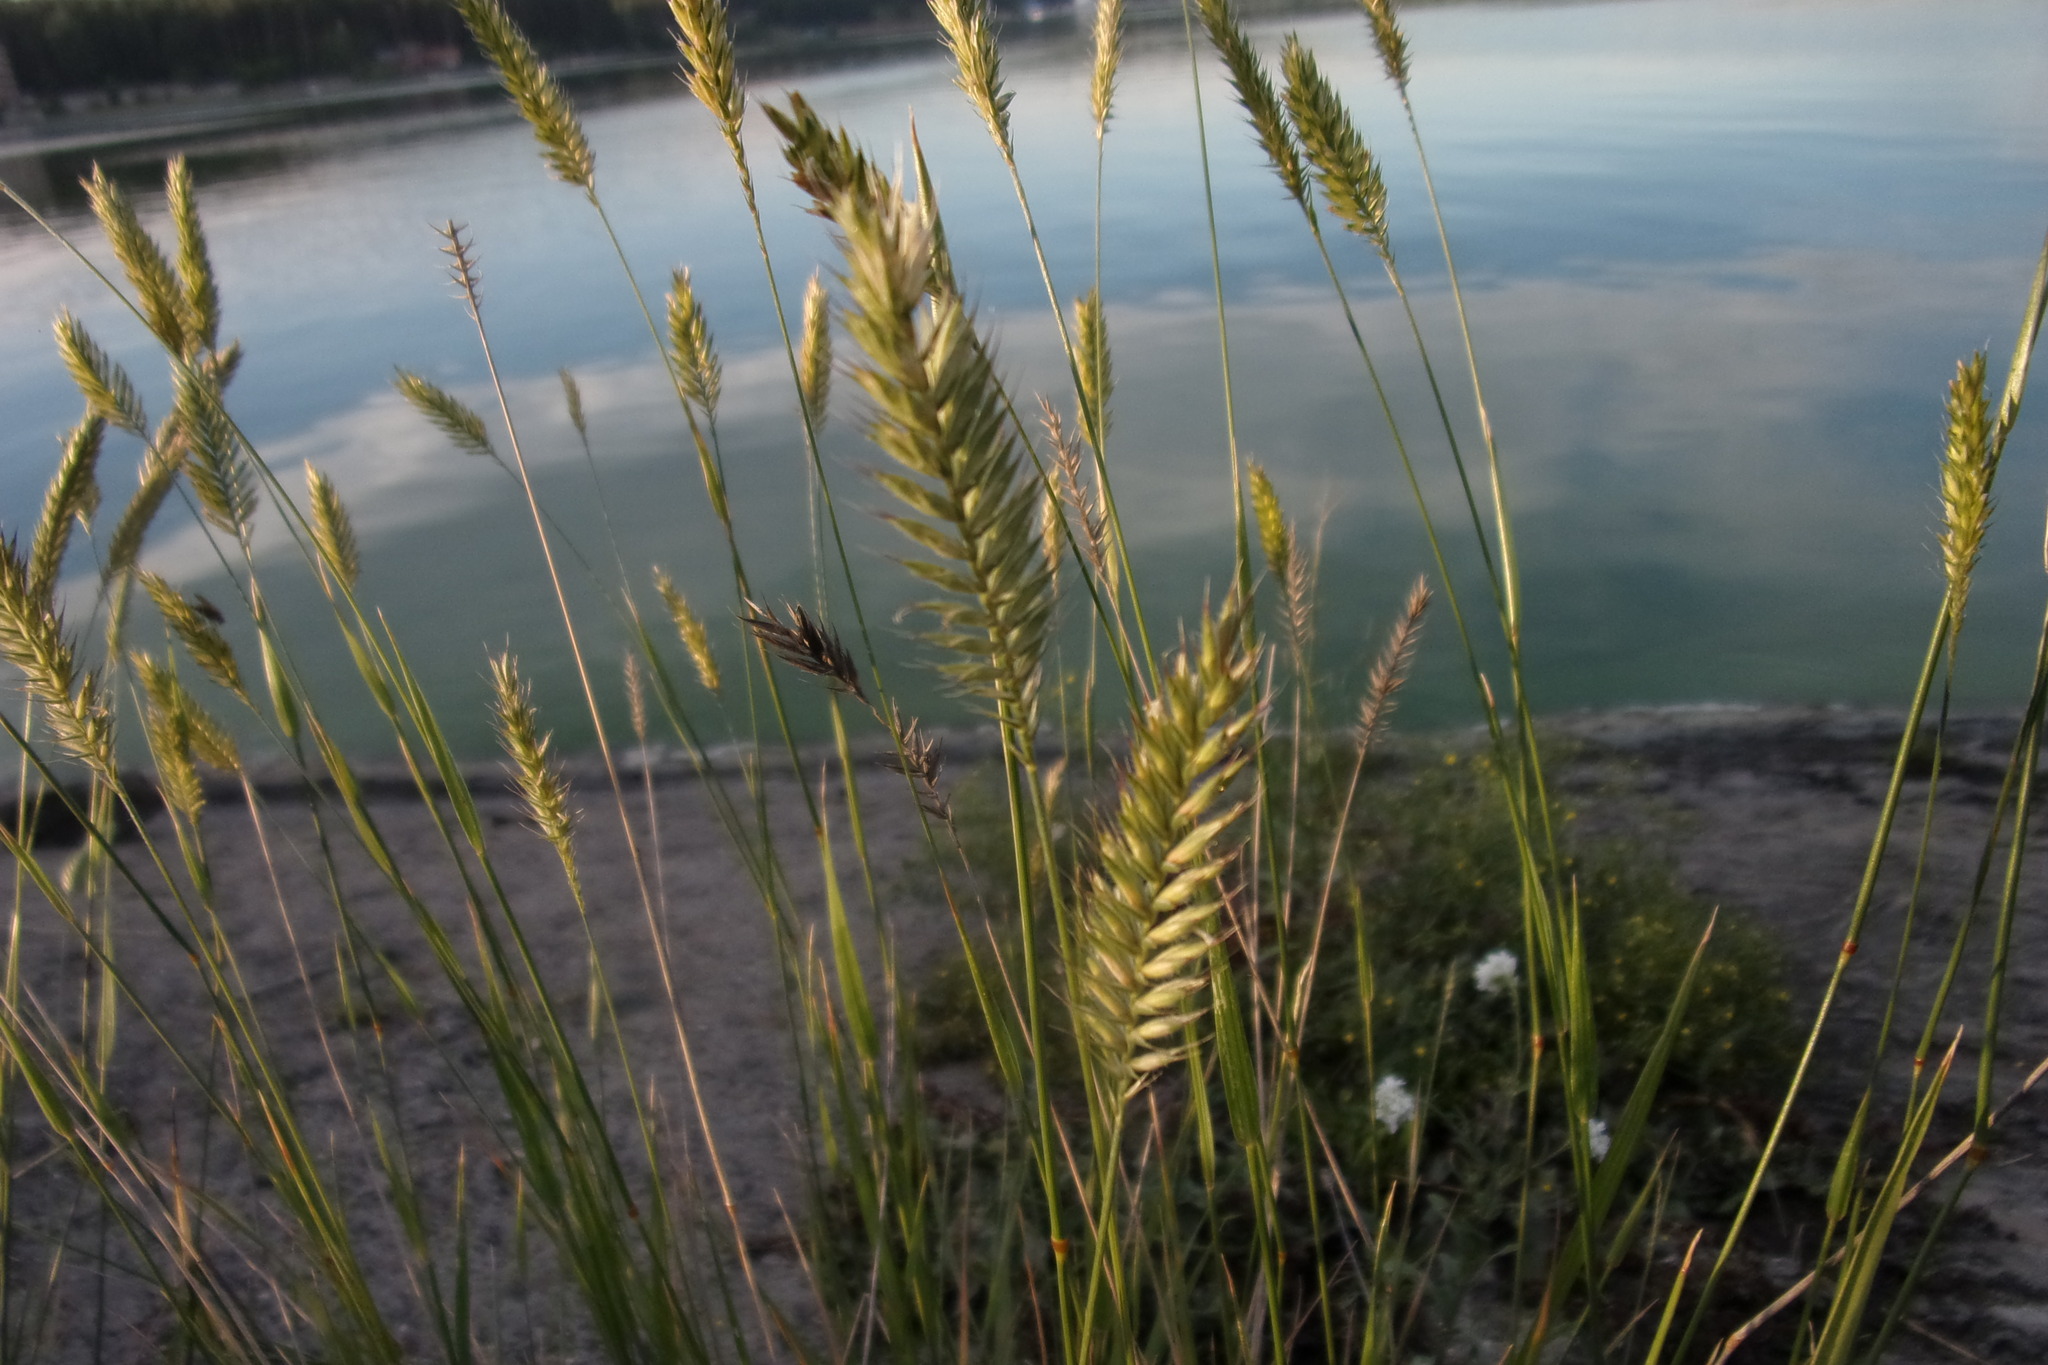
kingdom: Plantae
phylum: Tracheophyta
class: Liliopsida
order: Poales
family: Poaceae
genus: Agropyron
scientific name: Agropyron cristatum
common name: Crested wheatgrass
